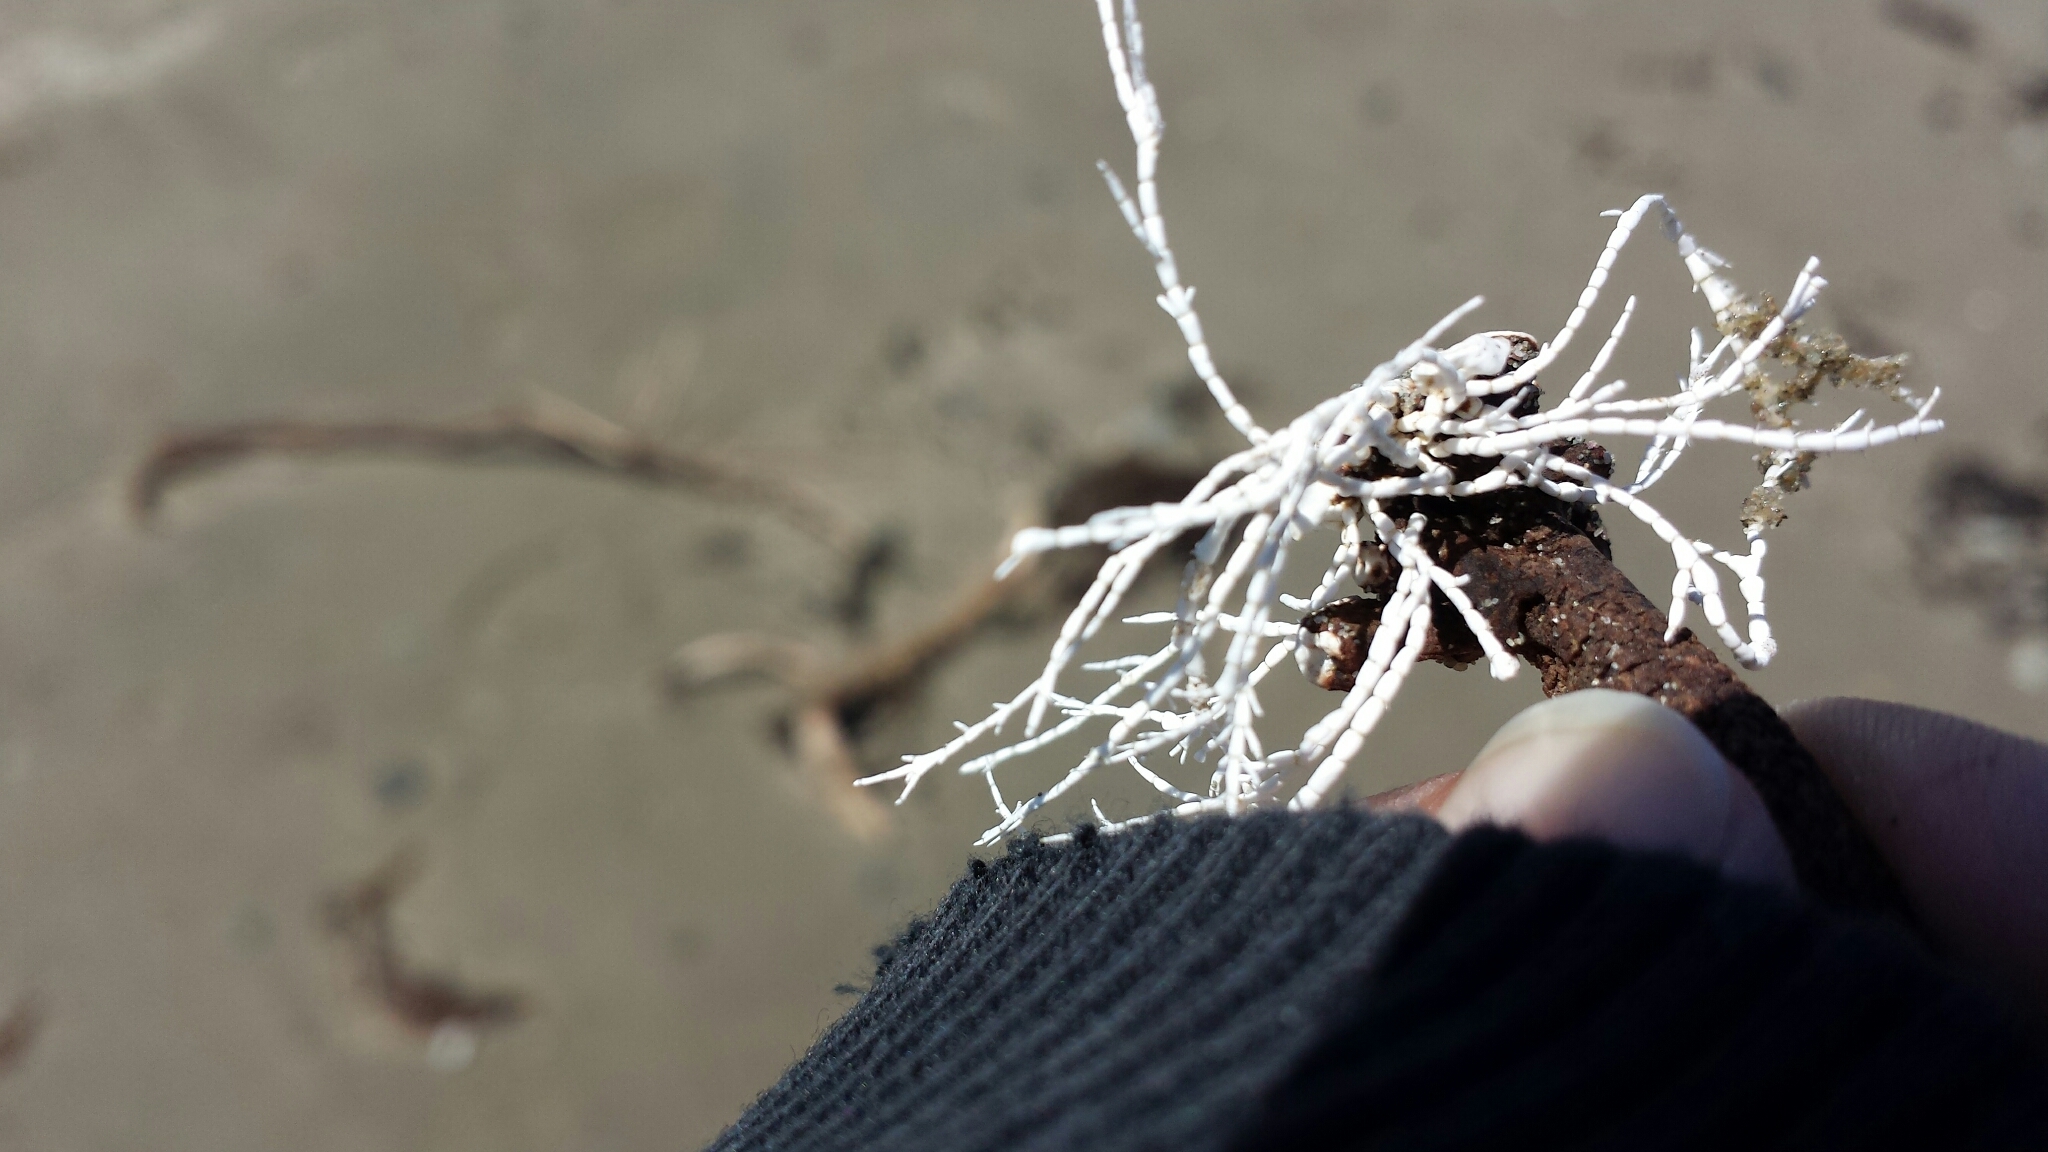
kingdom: Plantae
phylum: Rhodophyta
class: Florideophyceae
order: Corallinales
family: Corallinaceae
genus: Corallina
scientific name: Corallina officinalis
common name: Coral weed
